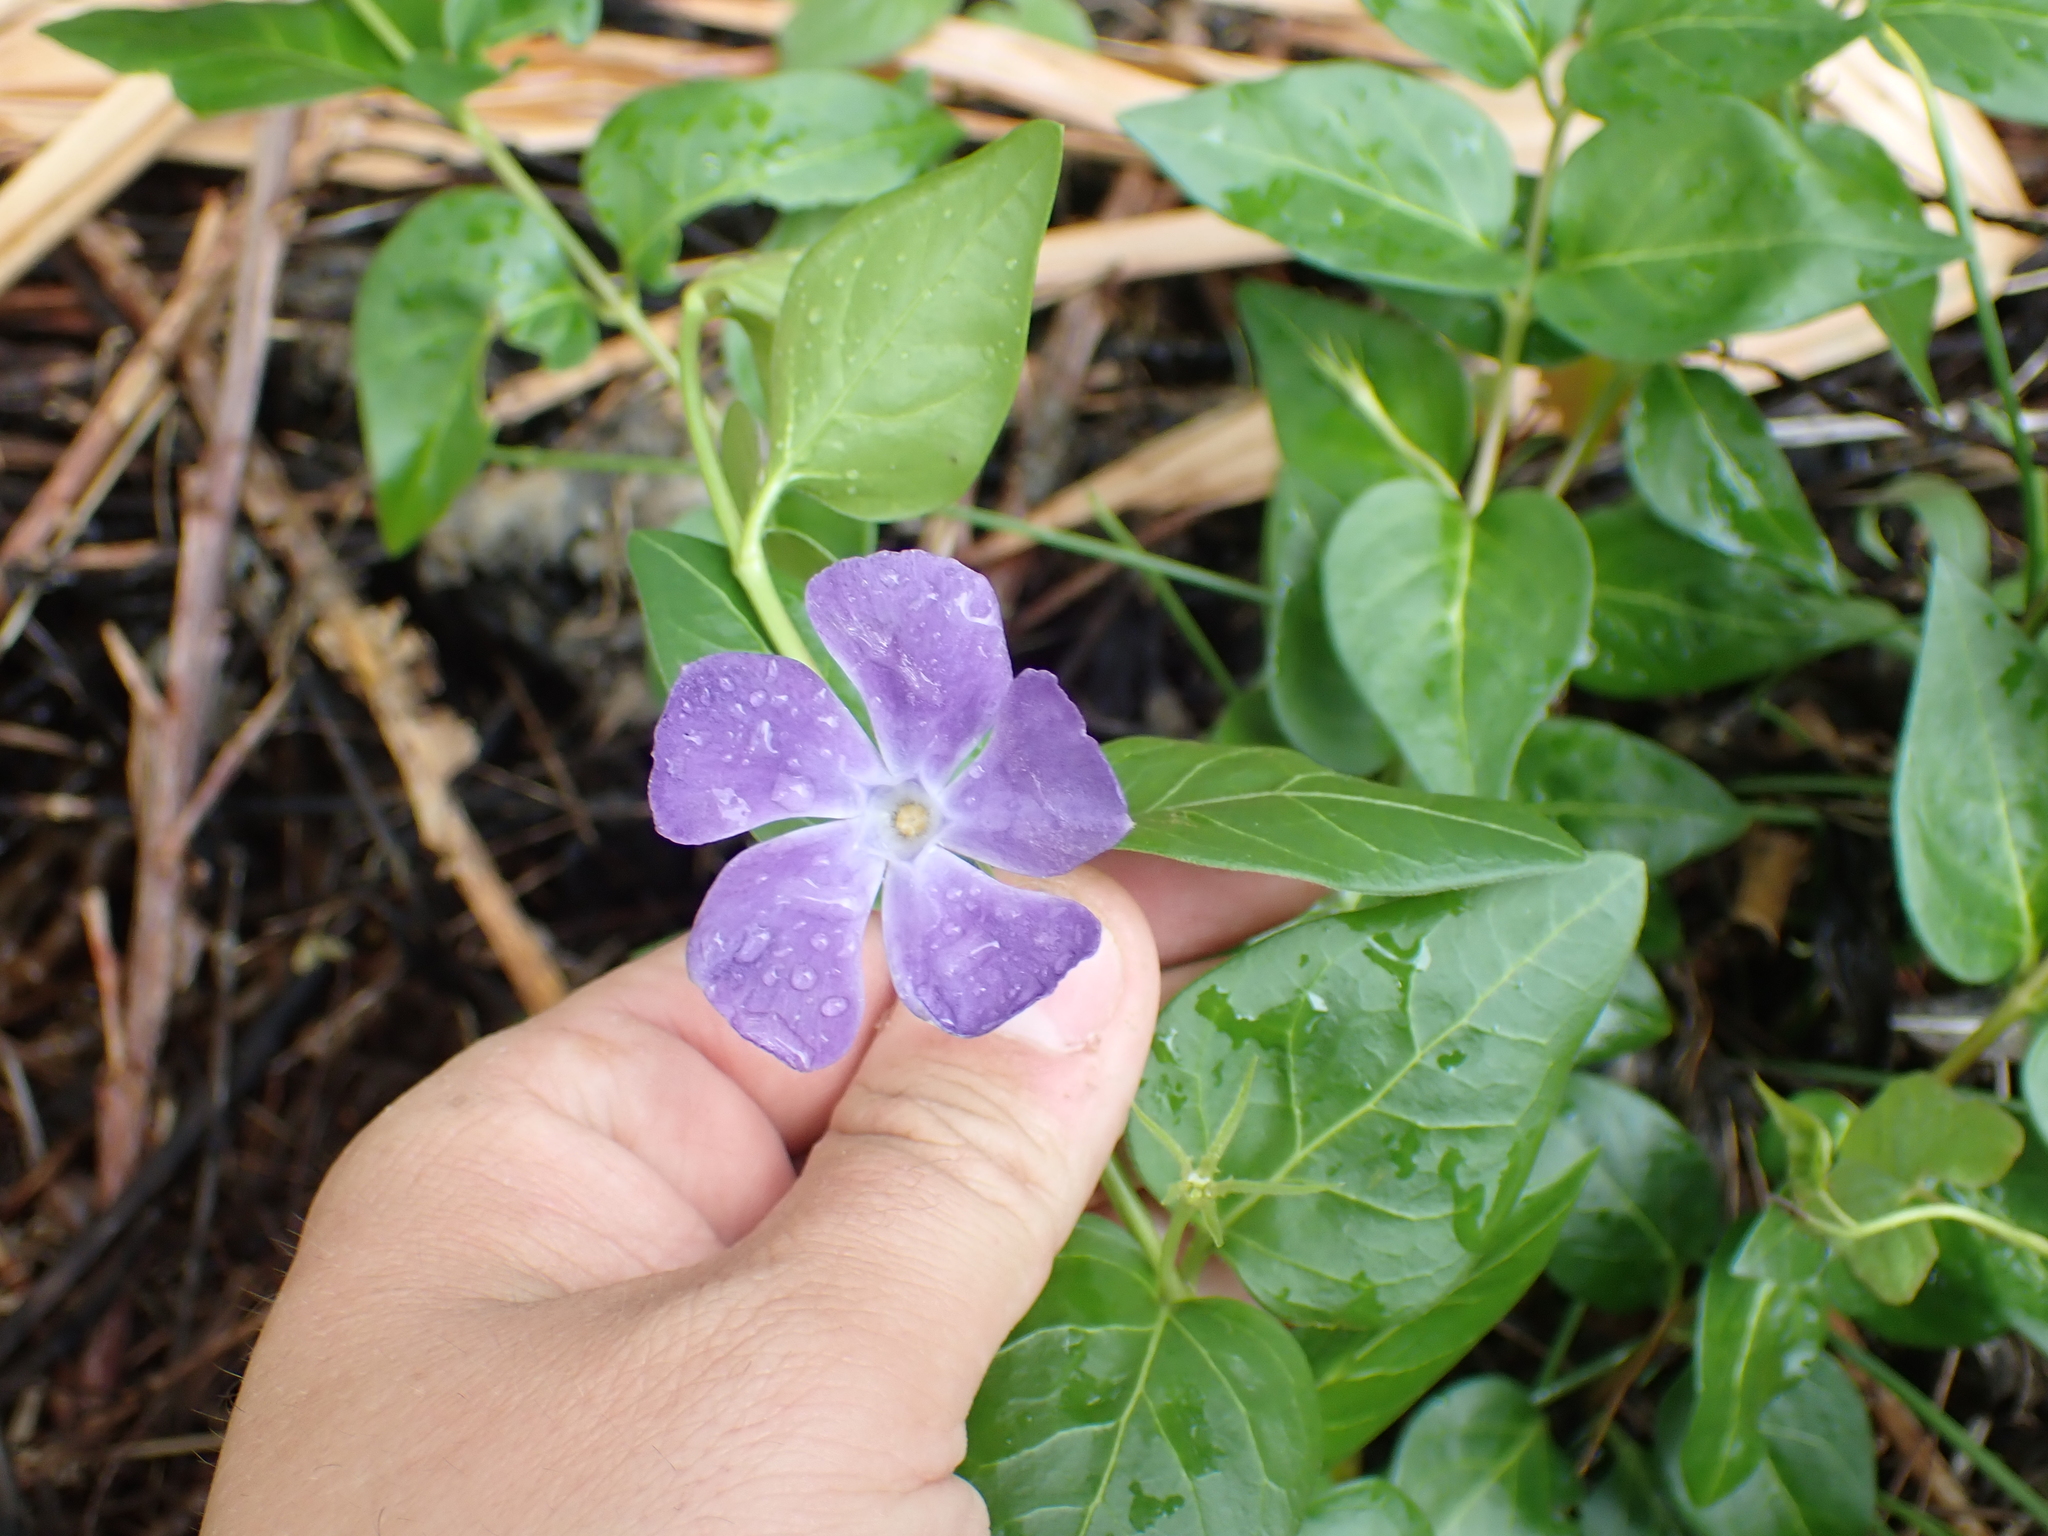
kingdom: Plantae
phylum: Tracheophyta
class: Magnoliopsida
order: Gentianales
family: Apocynaceae
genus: Vinca
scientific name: Vinca major
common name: Greater periwinkle
